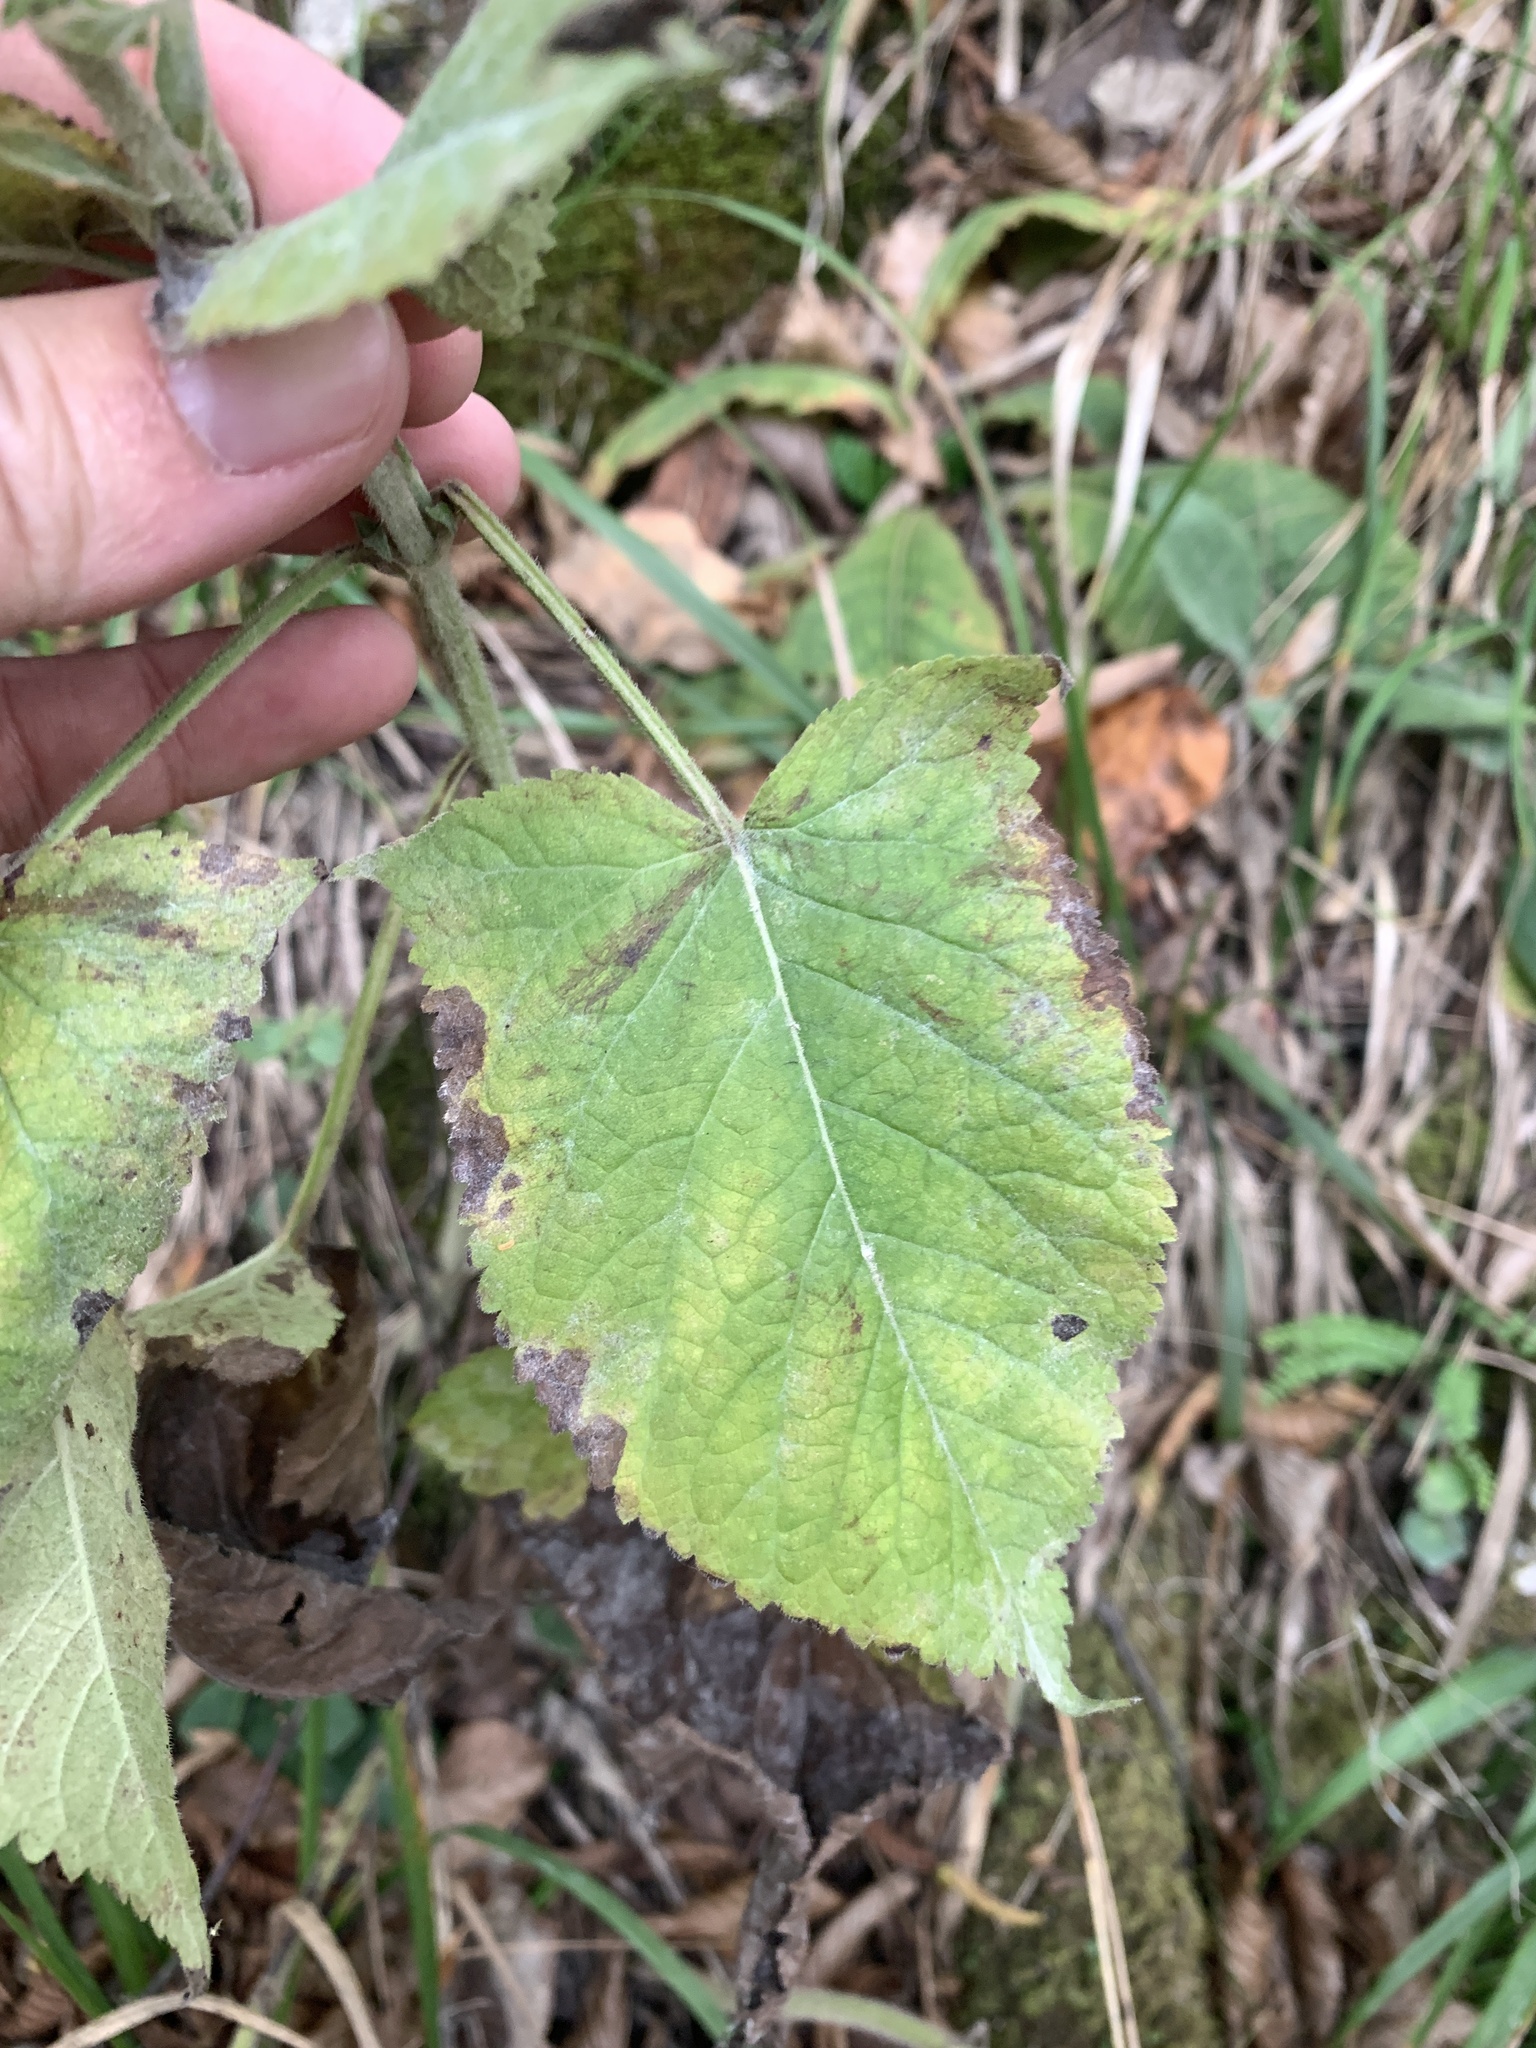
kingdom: Plantae
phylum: Tracheophyta
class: Magnoliopsida
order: Lamiales
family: Lamiaceae
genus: Salvia
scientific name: Salvia glutinosa
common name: Sticky clary
